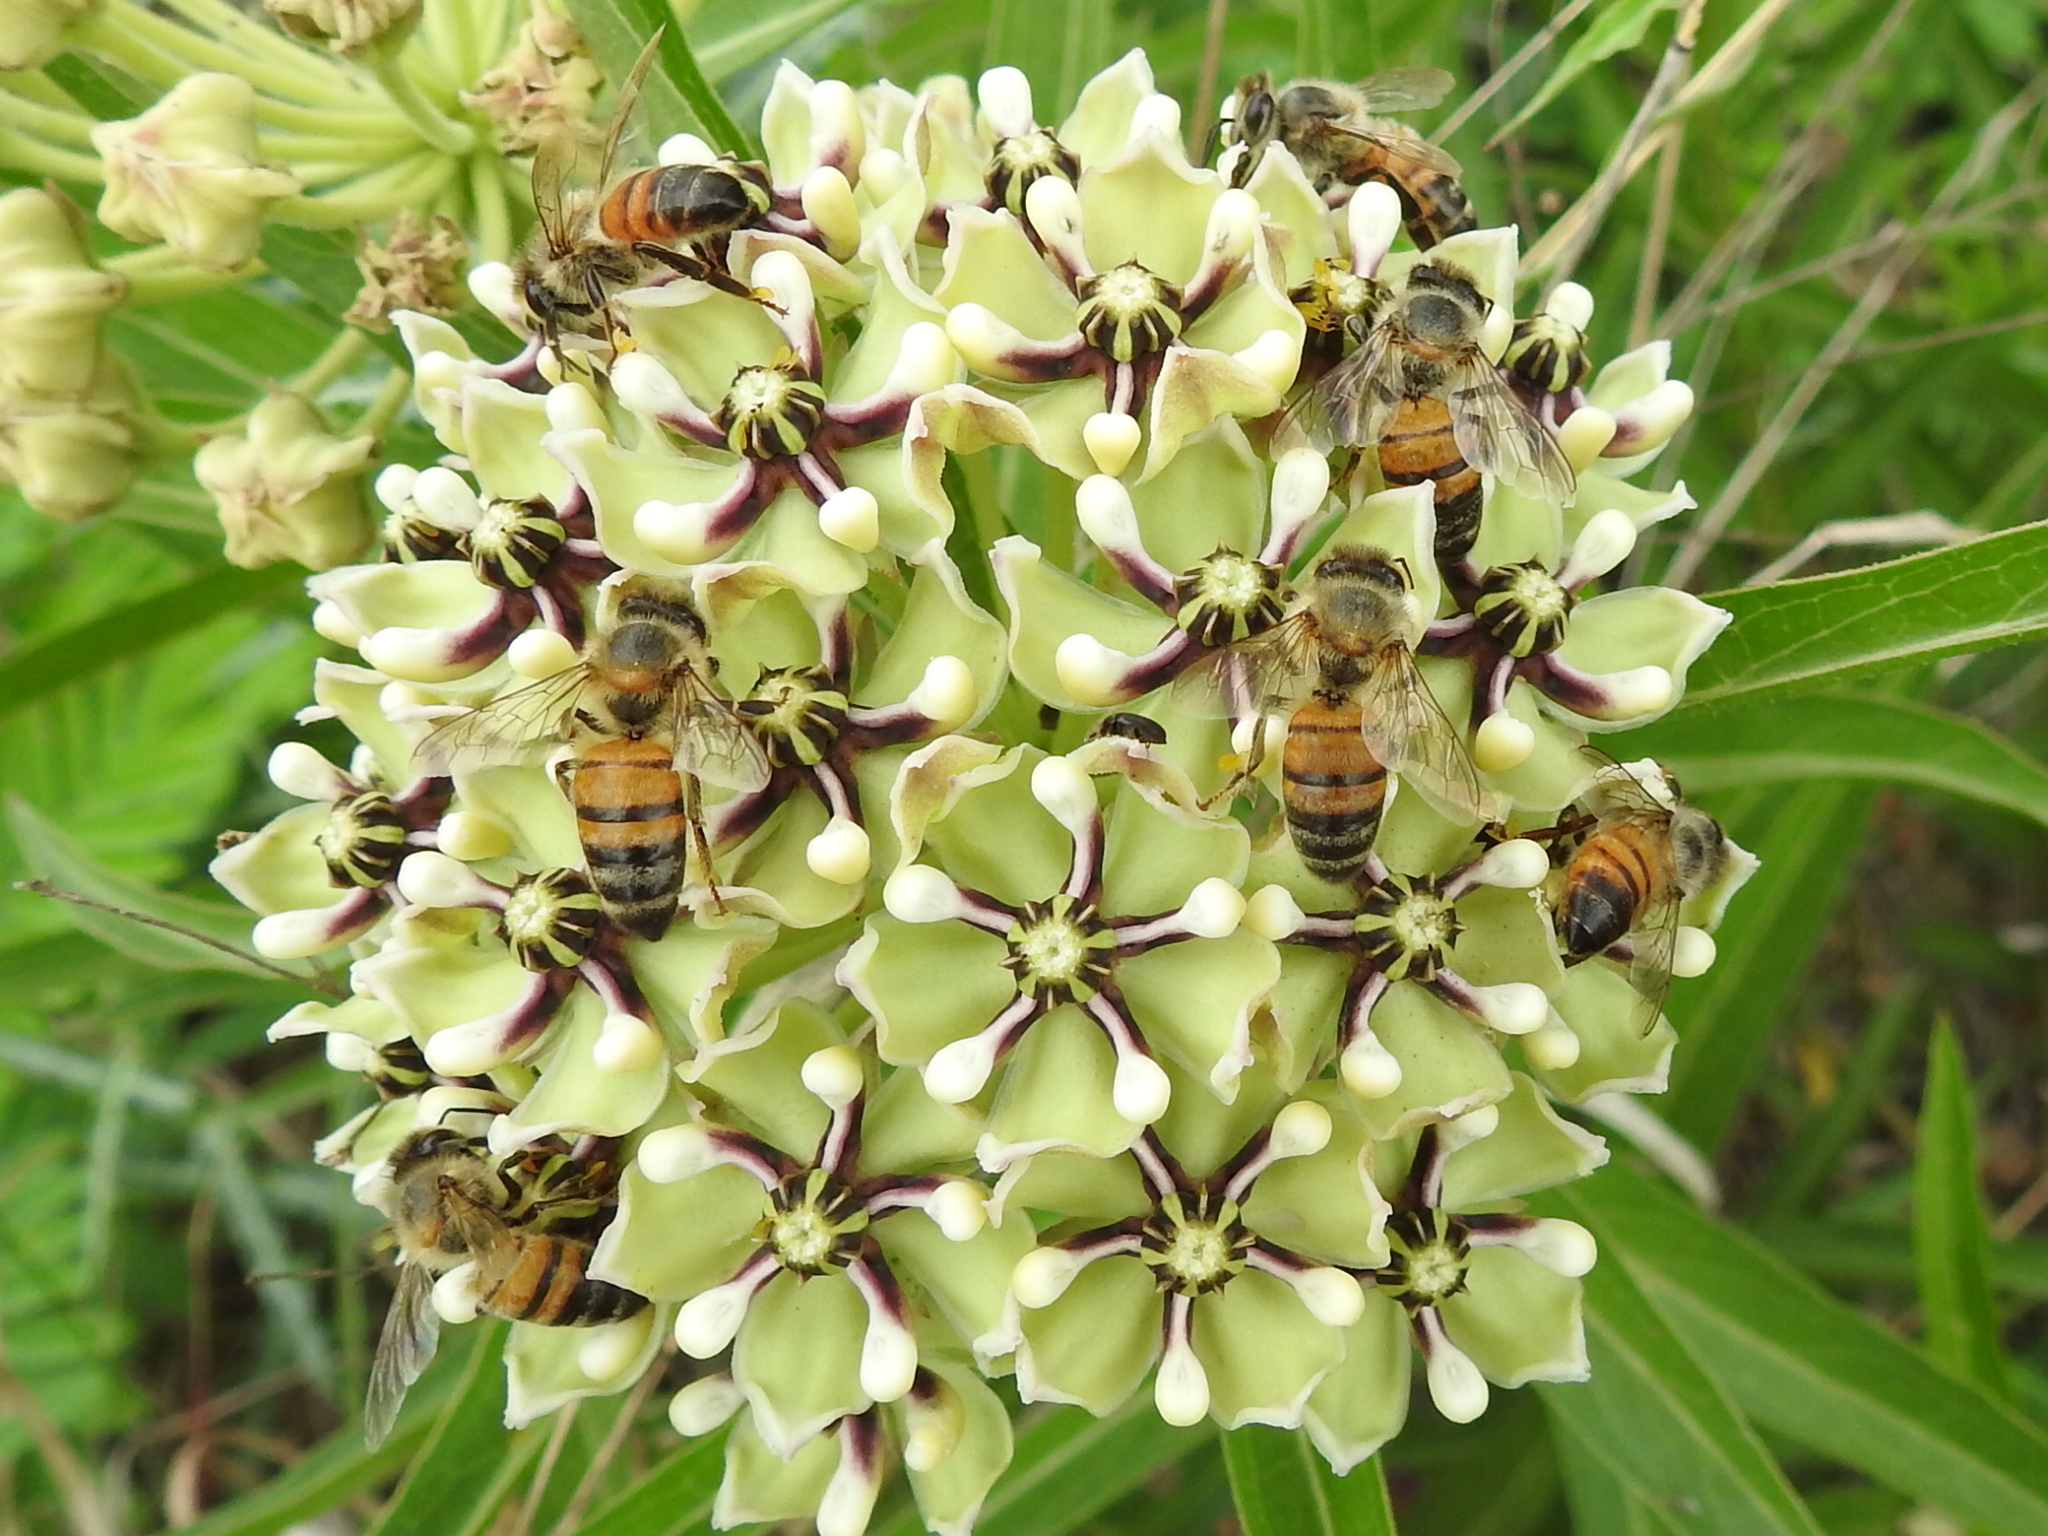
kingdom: Animalia
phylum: Arthropoda
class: Insecta
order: Hymenoptera
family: Apidae
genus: Apis
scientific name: Apis mellifera
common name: Honey bee
